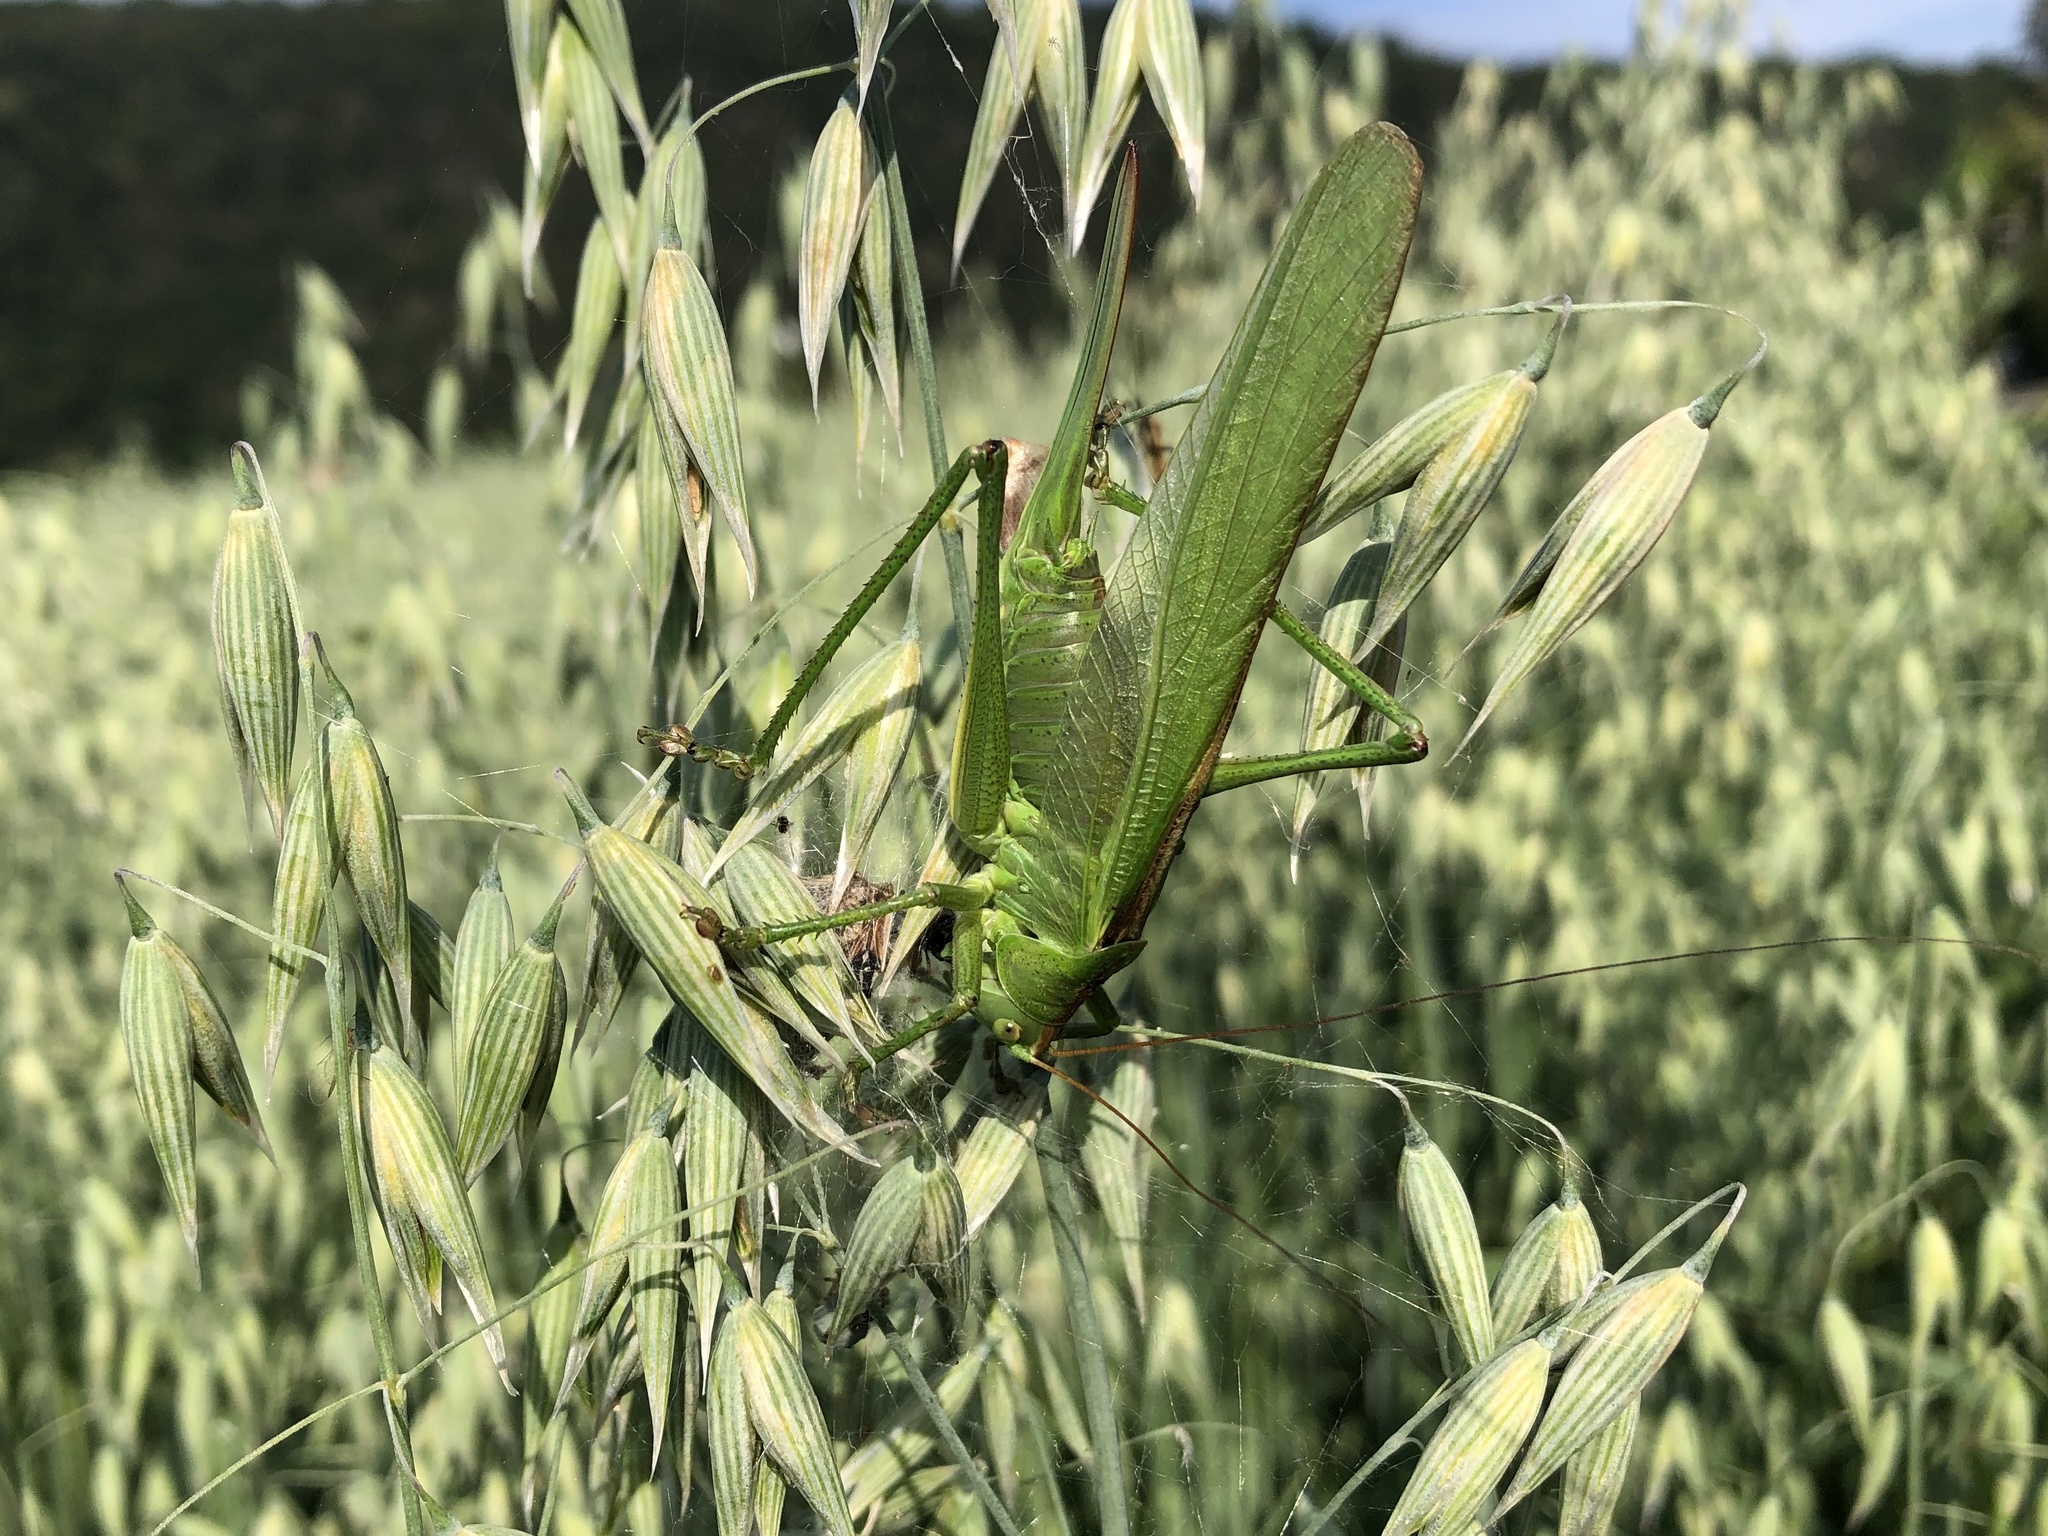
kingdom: Animalia
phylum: Arthropoda
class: Insecta
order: Orthoptera
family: Tettigoniidae
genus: Tettigonia
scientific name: Tettigonia viridissima
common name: Great green bush-cricket
